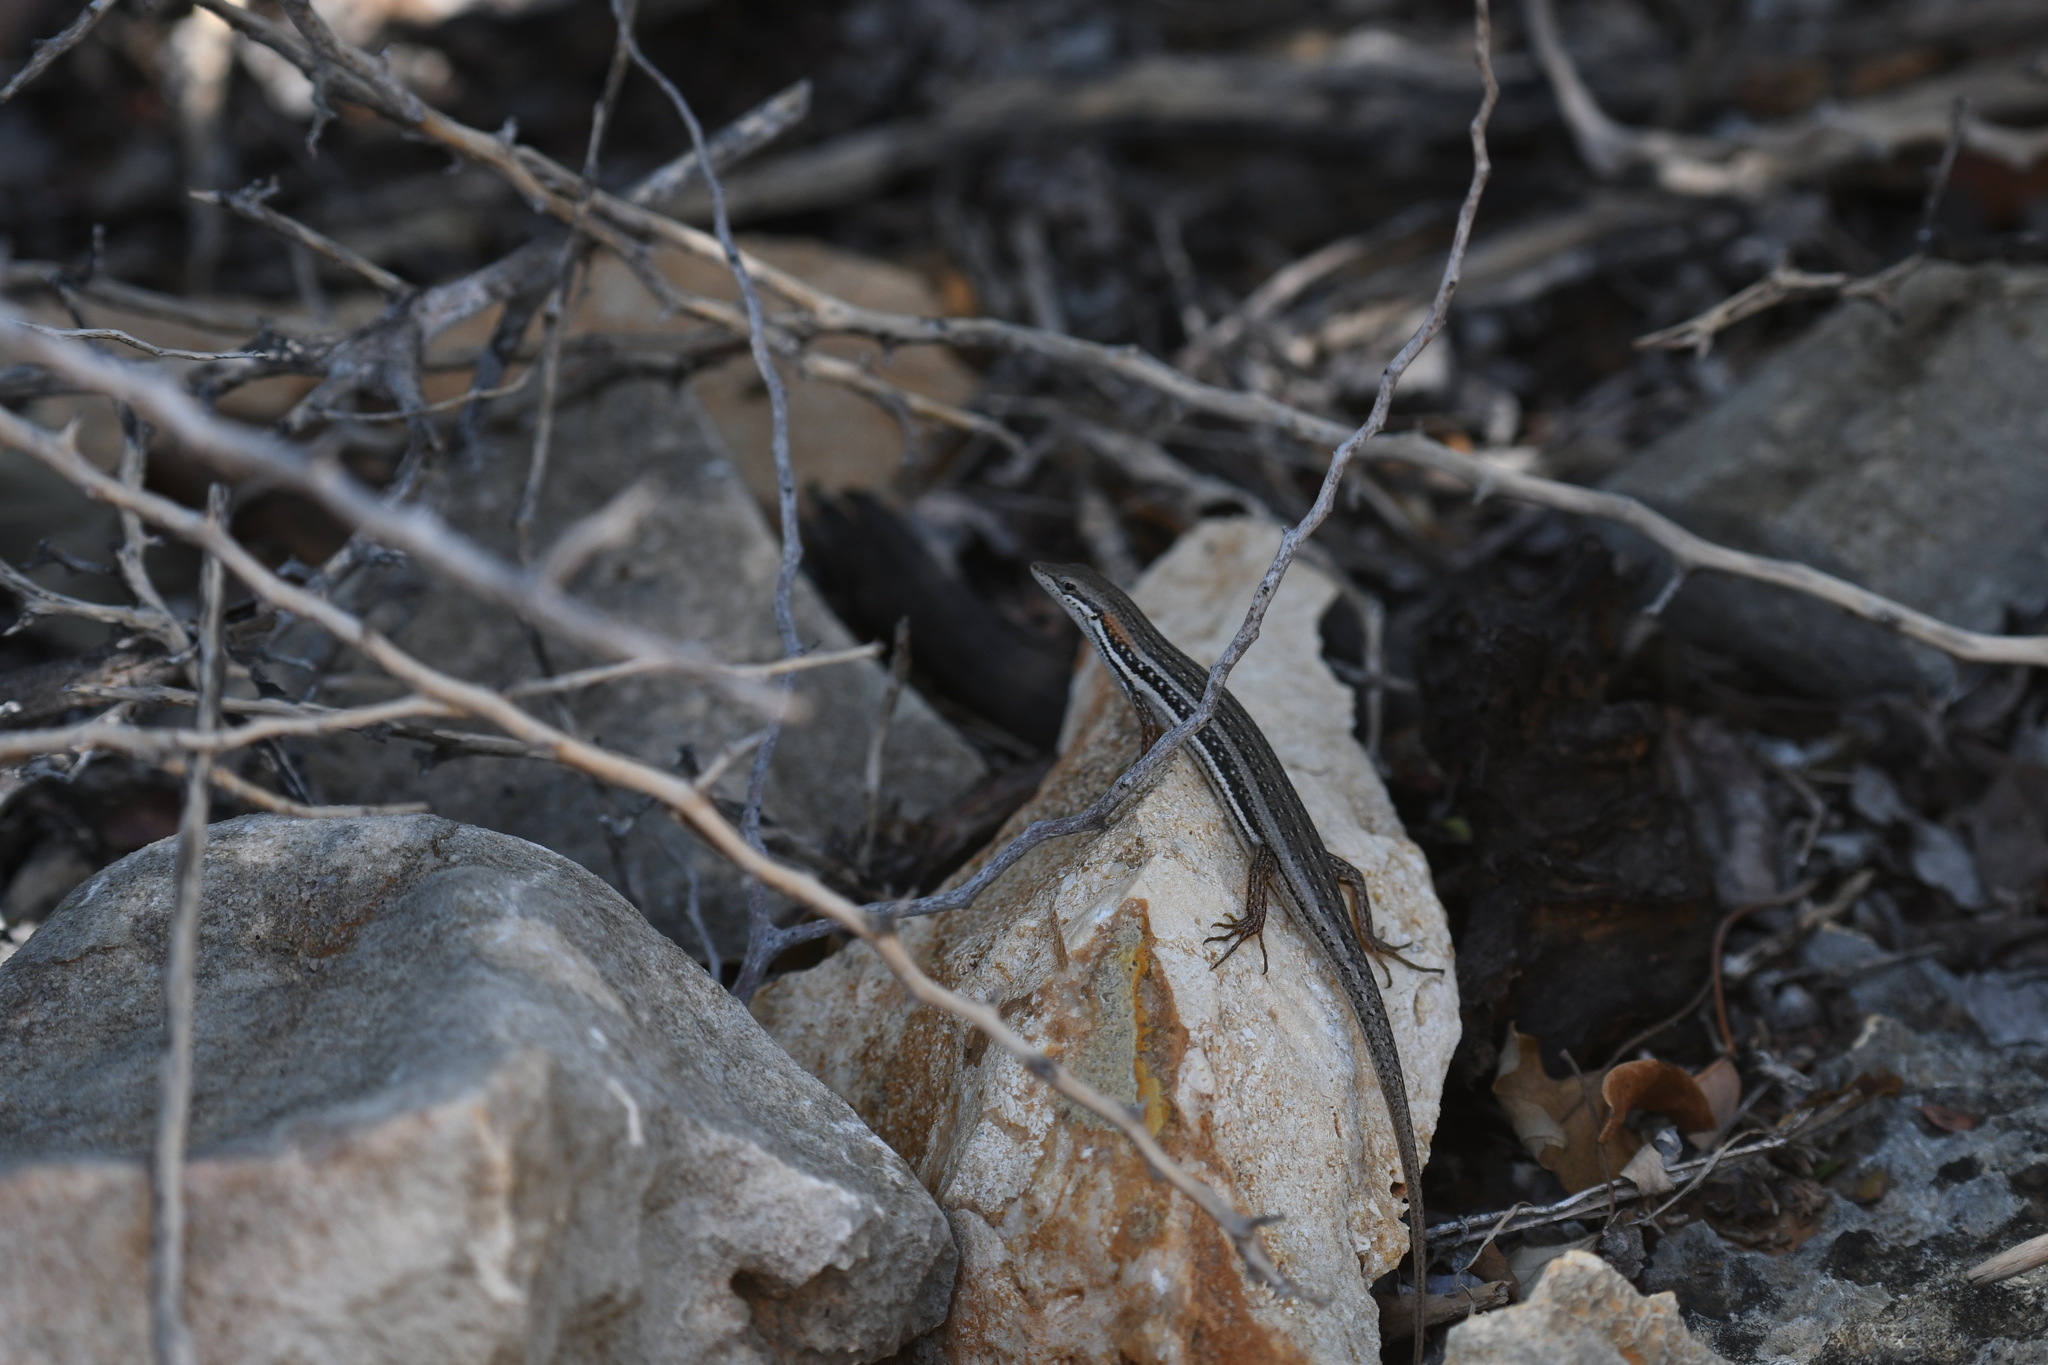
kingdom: Animalia
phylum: Chordata
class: Squamata
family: Scincidae
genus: Trachylepis
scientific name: Trachylepis elegans
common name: Elegant mabuya
